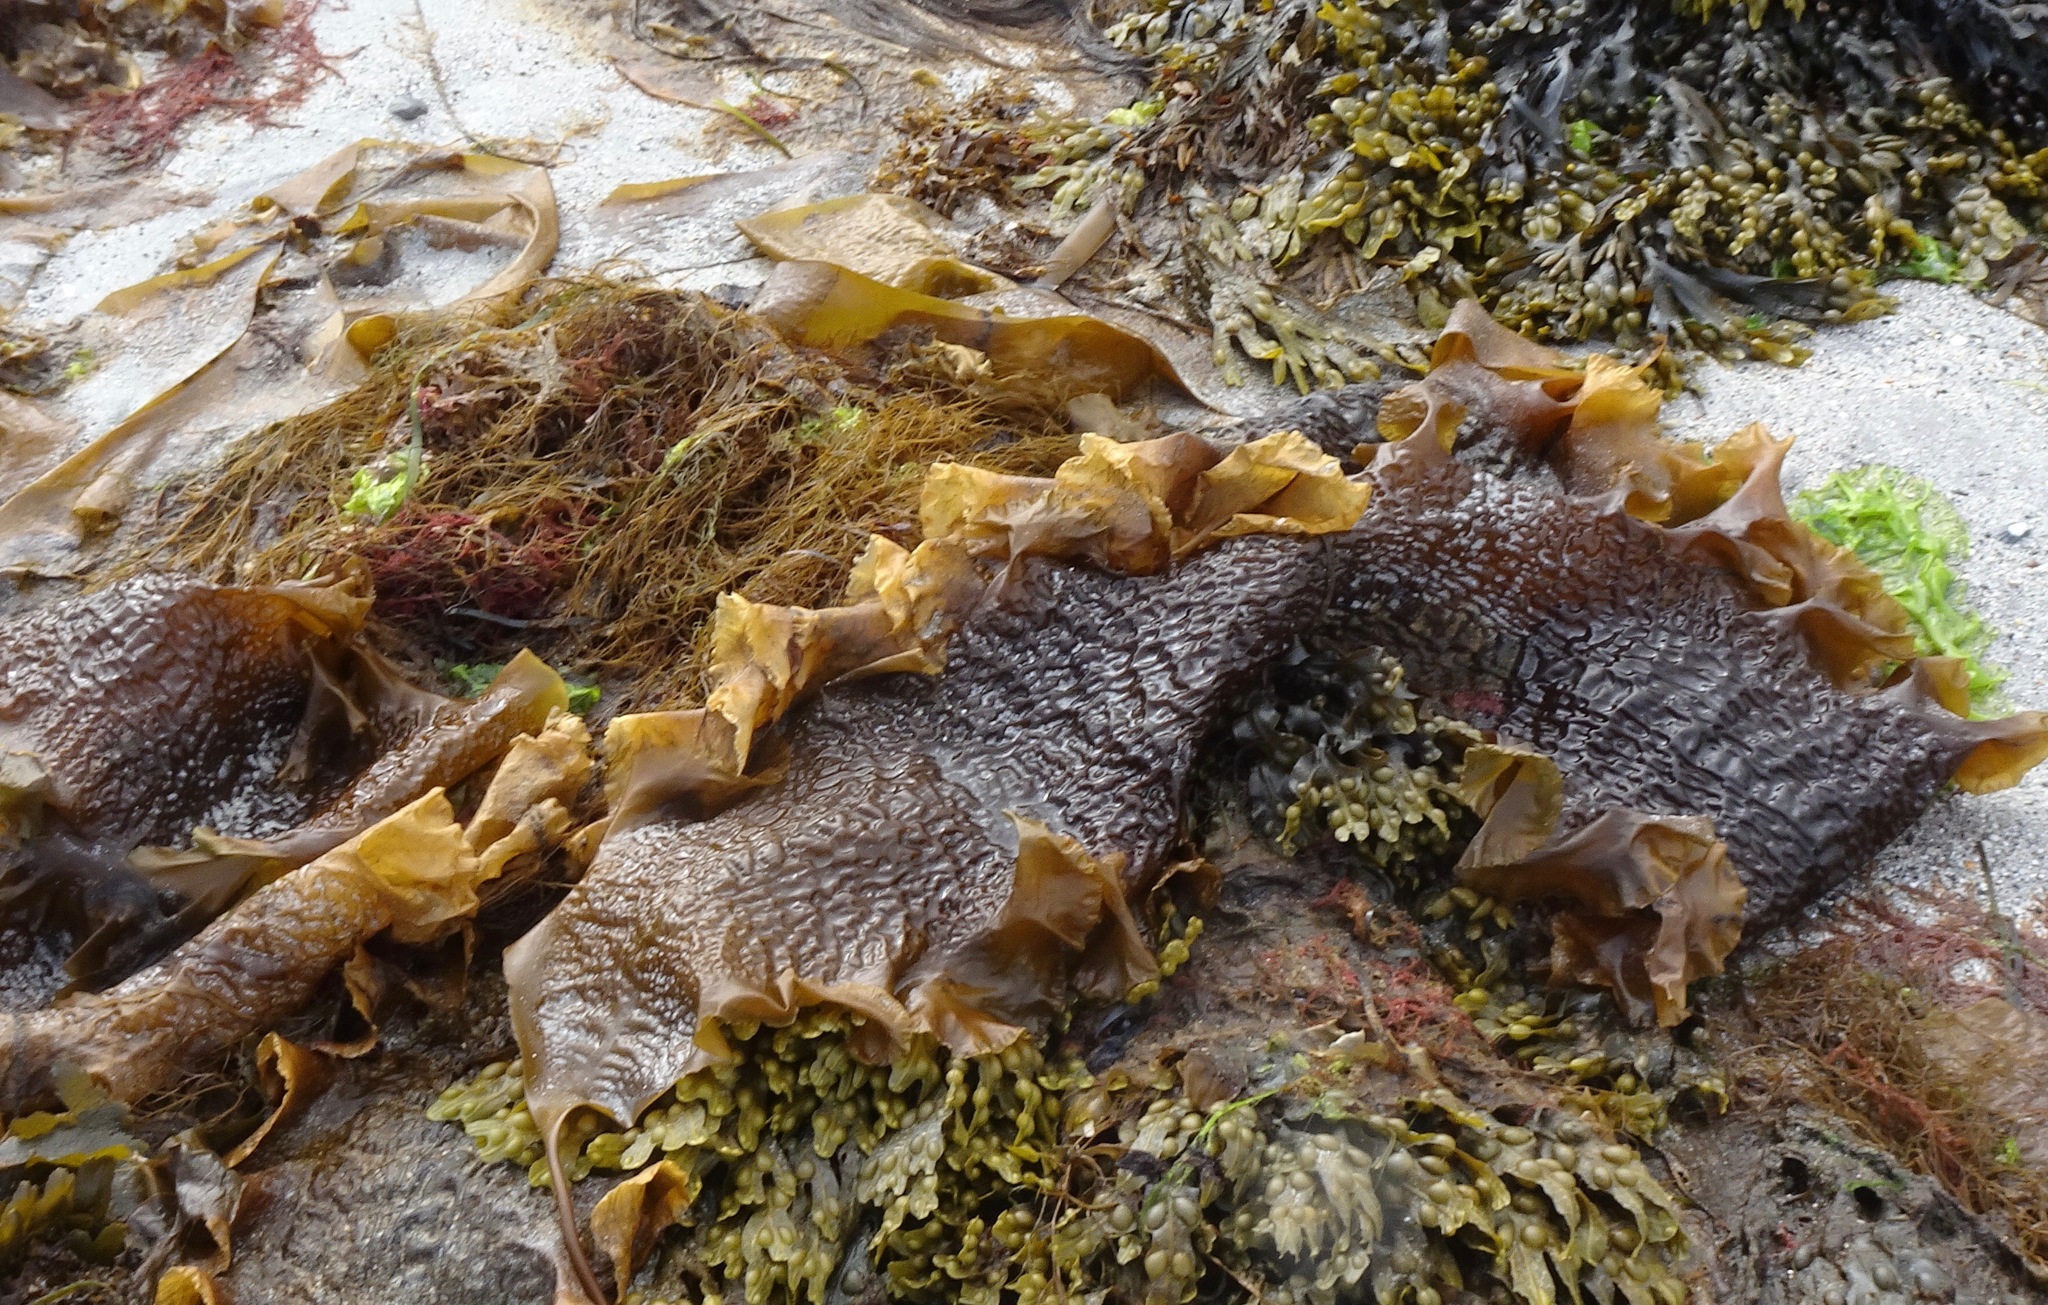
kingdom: Chromista
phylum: Ochrophyta
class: Phaeophyceae
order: Laminariales
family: Laminariaceae
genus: Saccharina
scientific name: Saccharina latissima
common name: Poor man's weather glass
